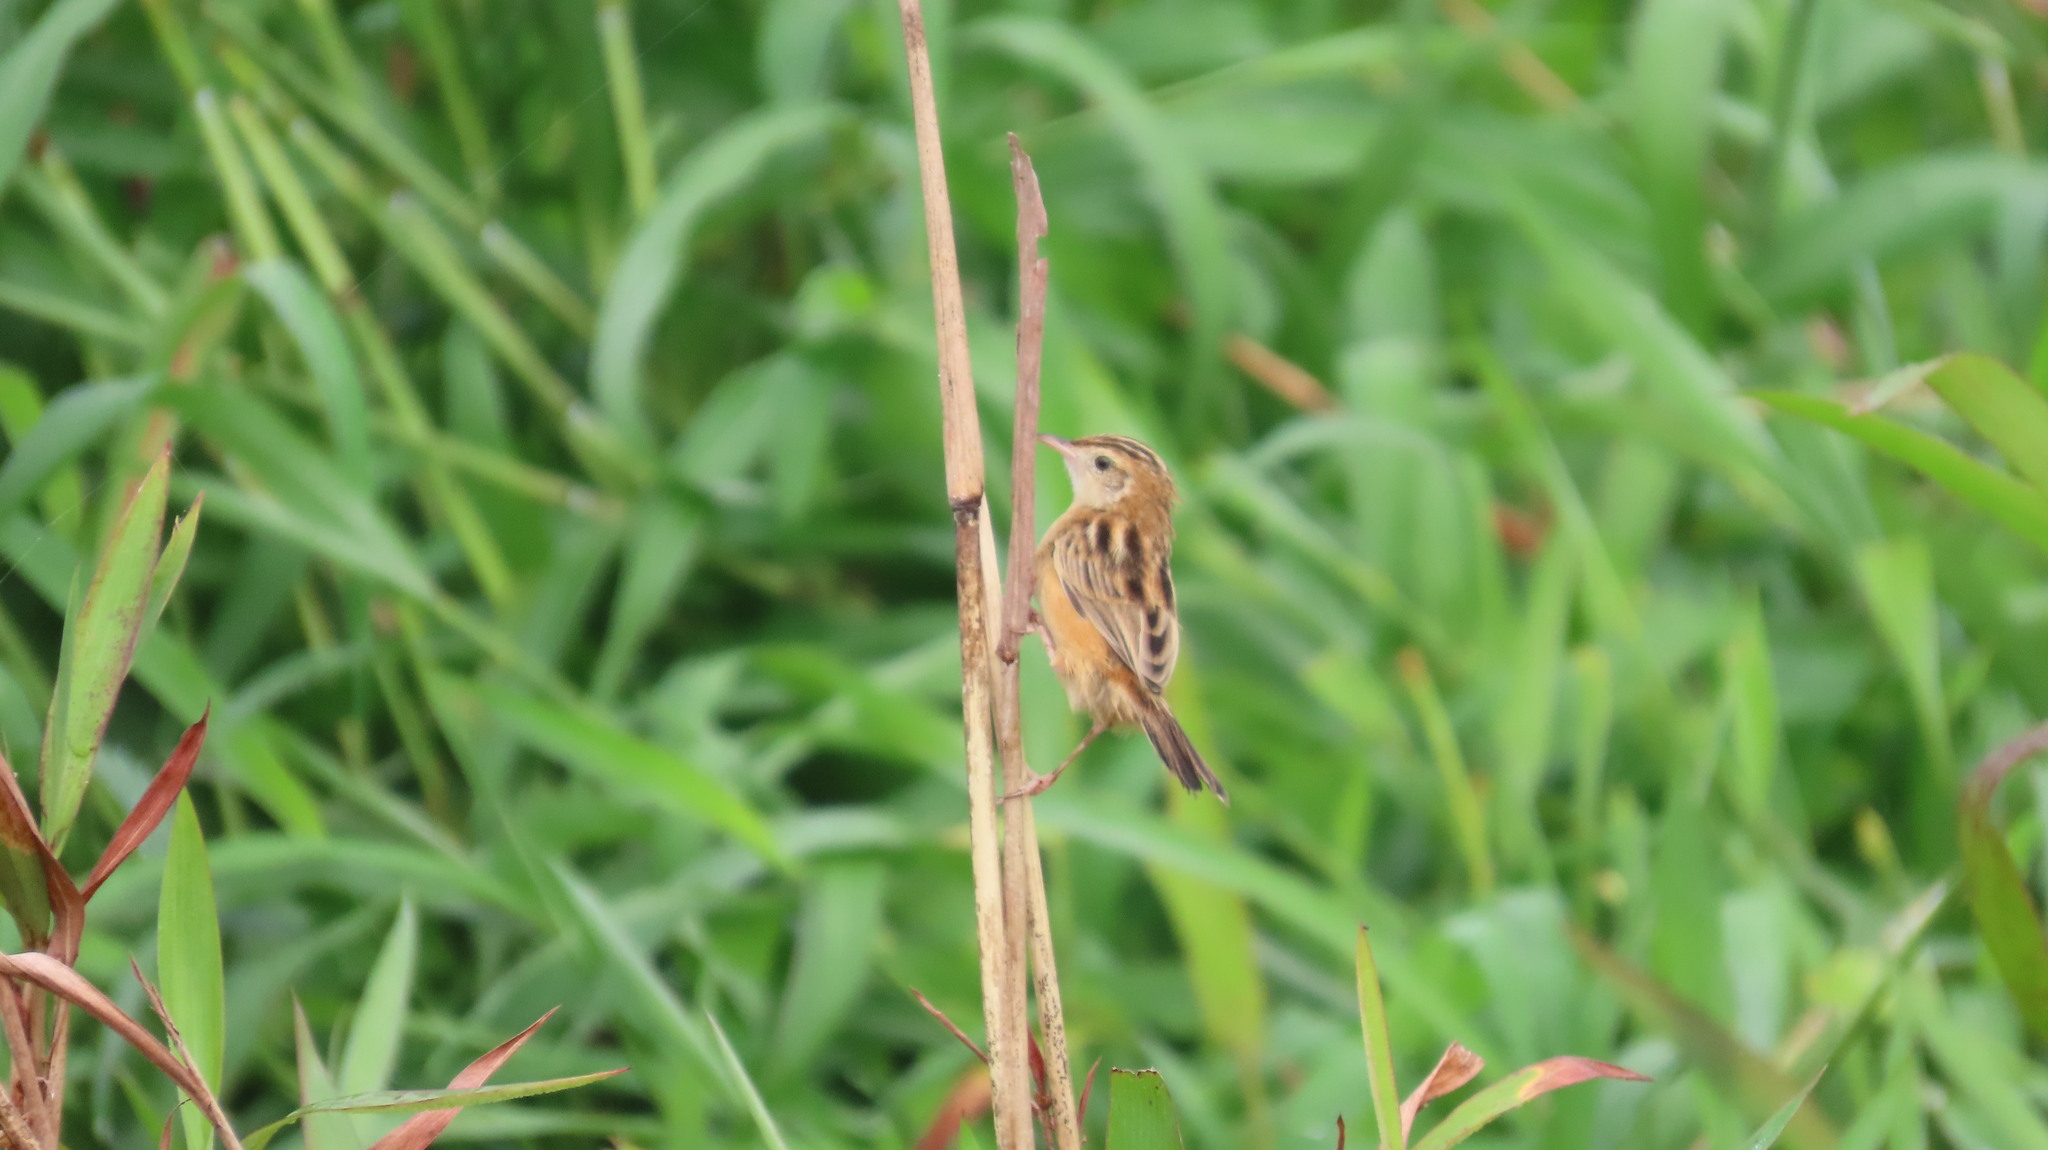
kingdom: Animalia
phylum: Chordata
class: Aves
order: Passeriformes
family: Cisticolidae
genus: Cisticola
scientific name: Cisticola juncidis
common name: Zitting cisticola
